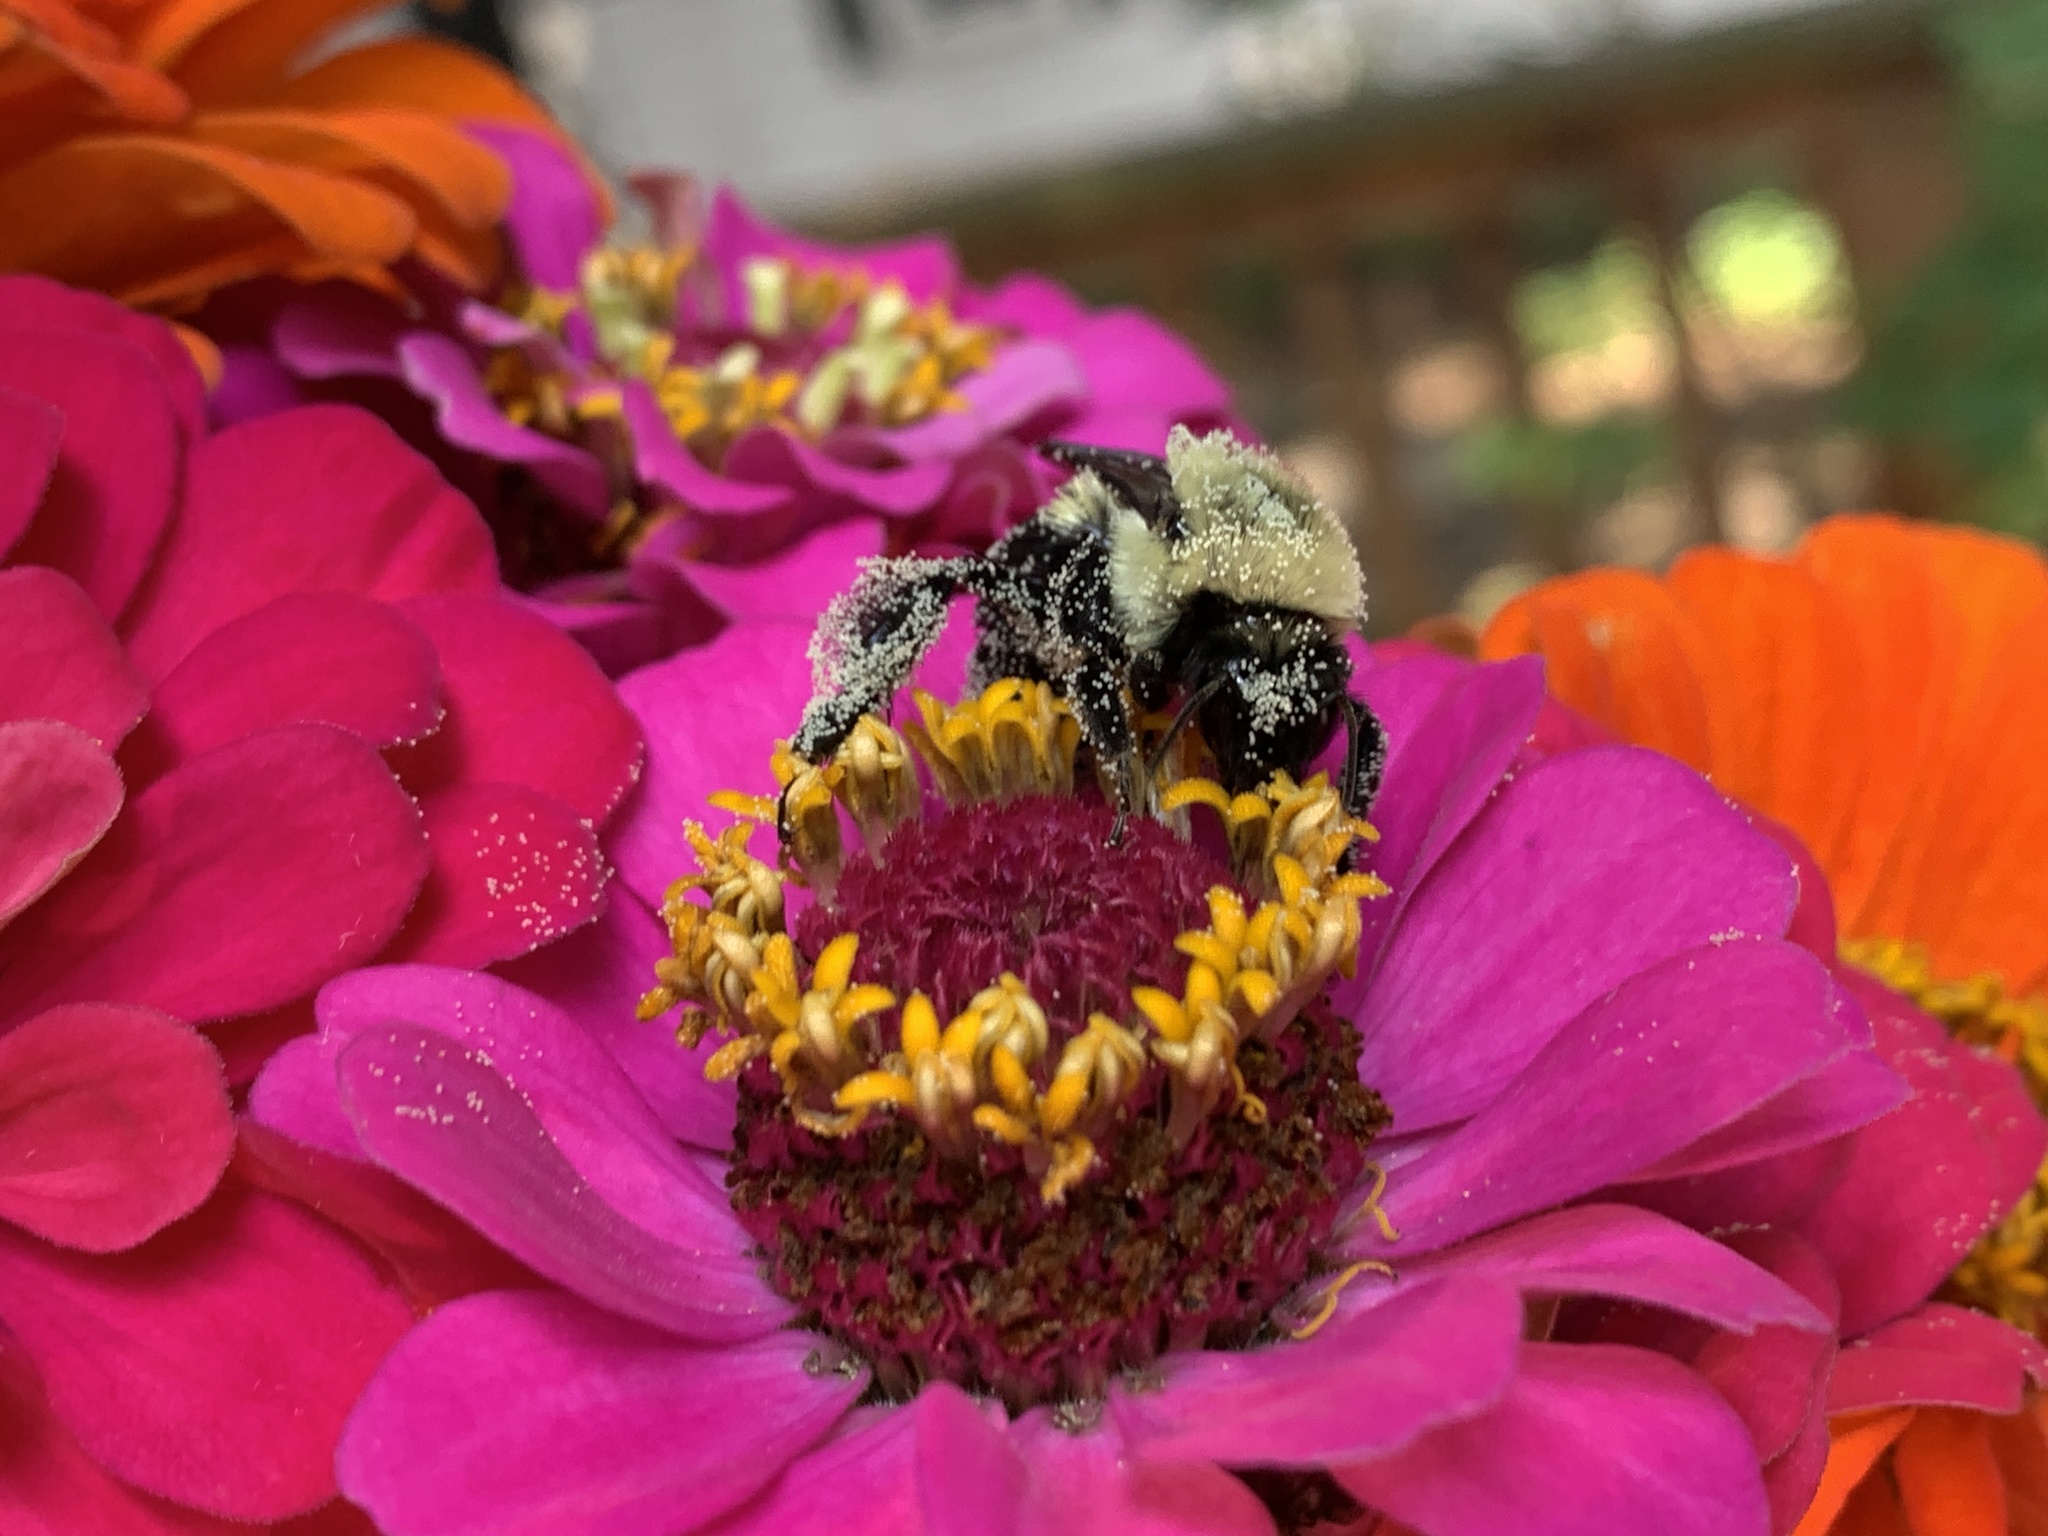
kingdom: Animalia
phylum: Arthropoda
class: Insecta
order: Hymenoptera
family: Apidae
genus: Bombus
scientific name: Bombus impatiens
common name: Common eastern bumble bee
